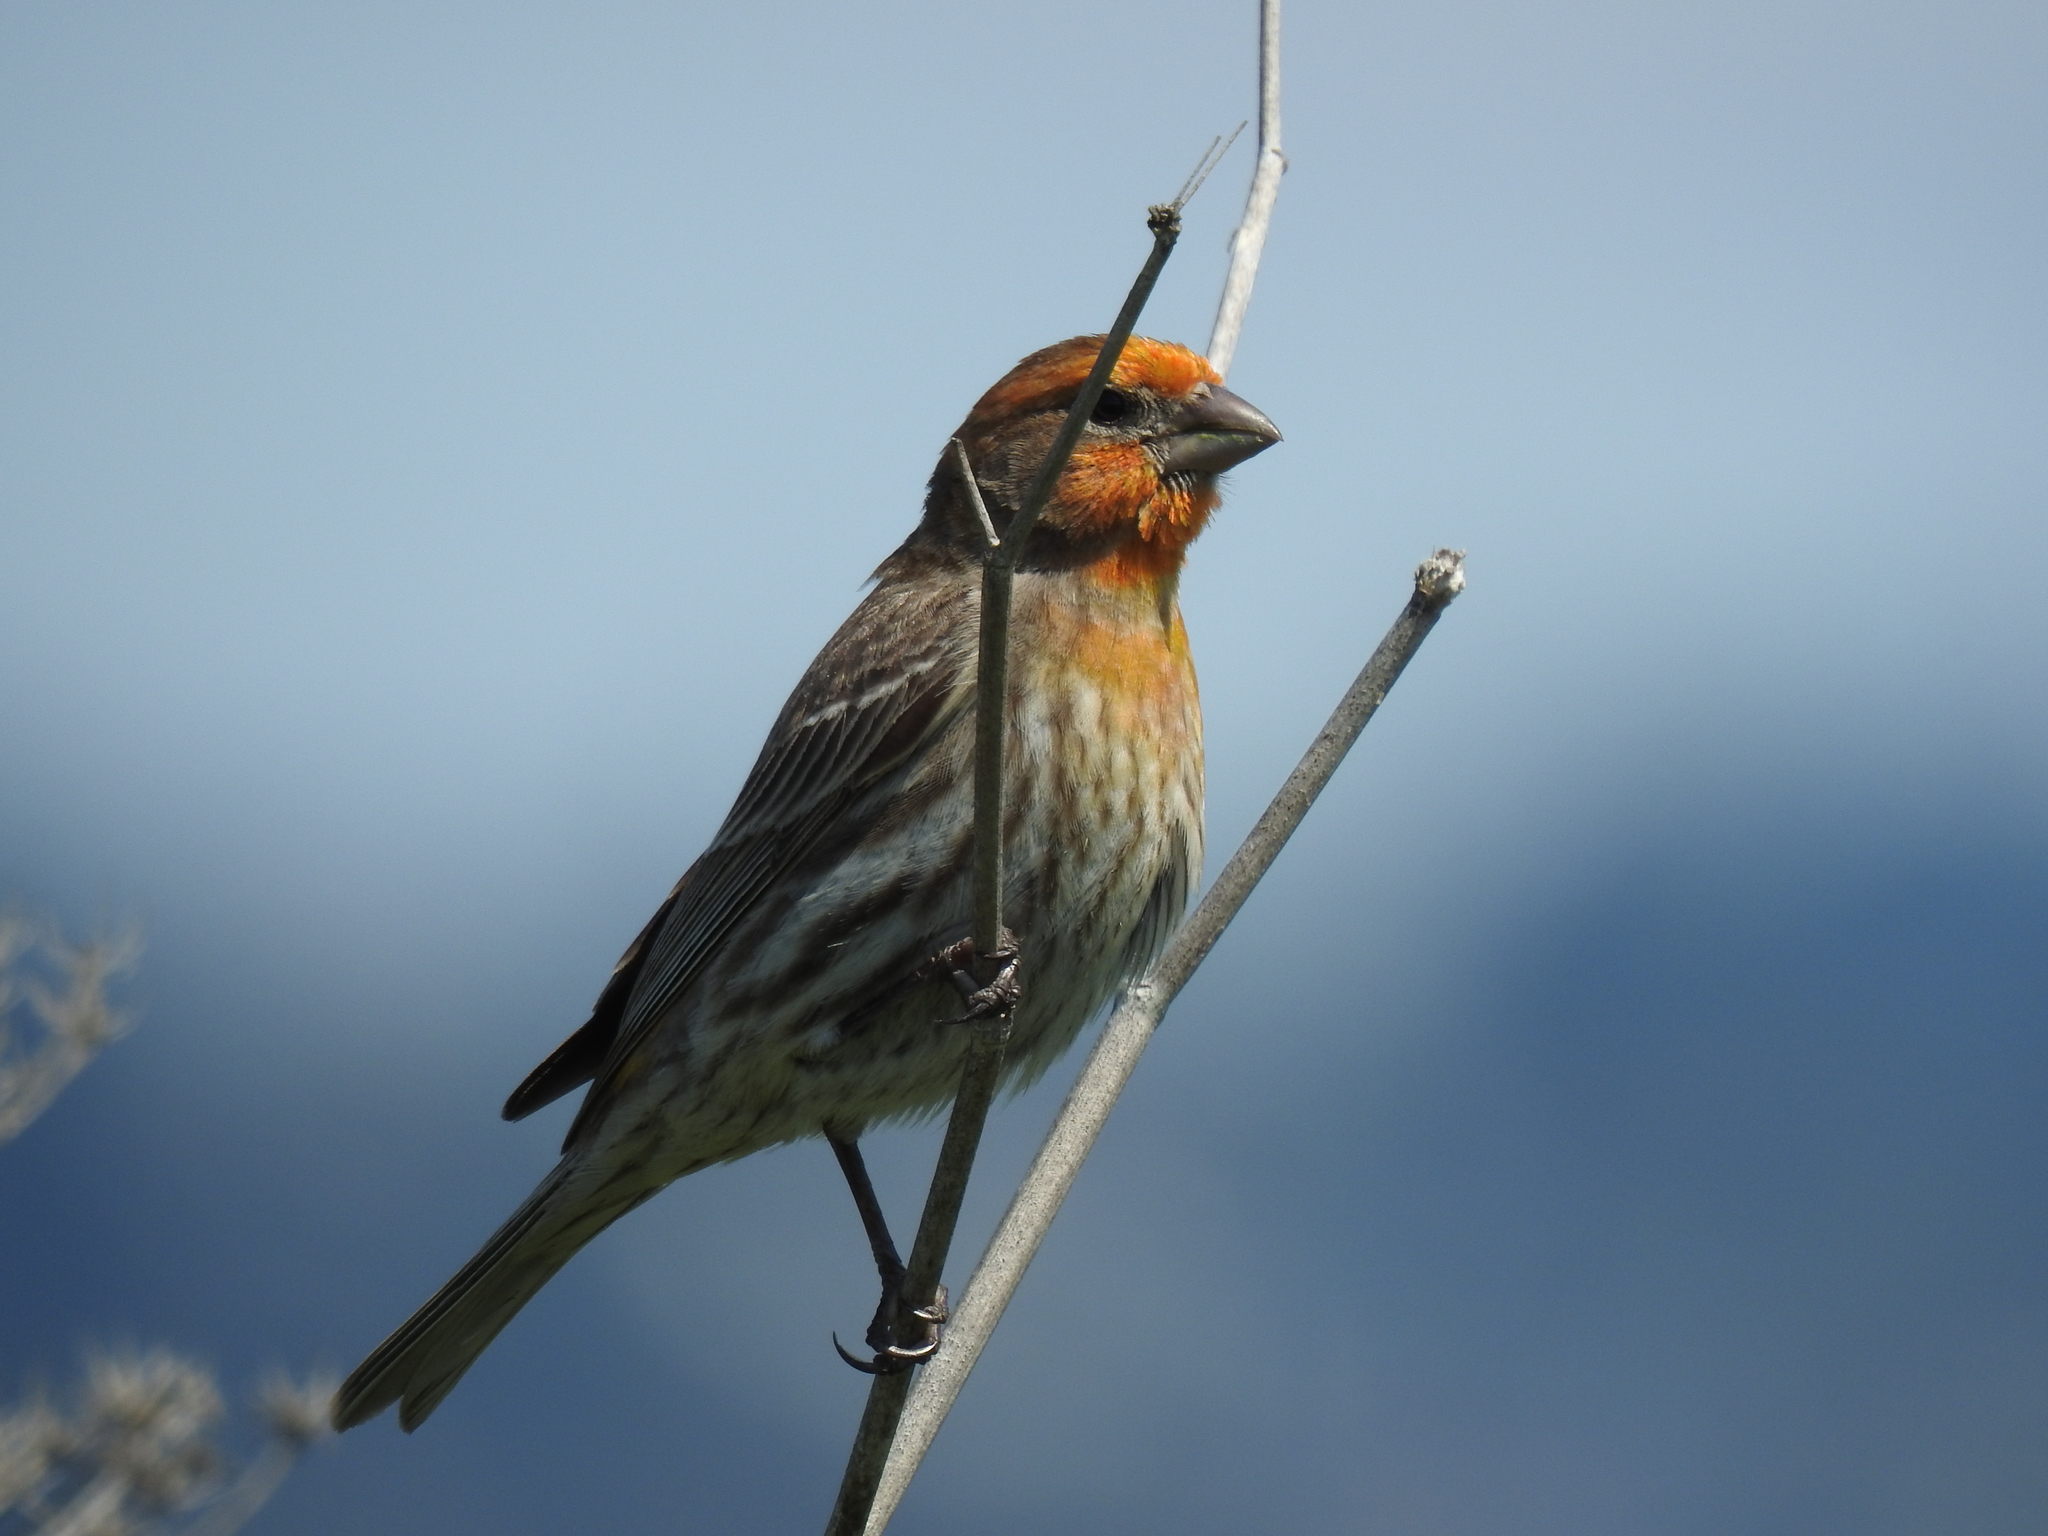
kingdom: Animalia
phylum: Chordata
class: Aves
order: Passeriformes
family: Fringillidae
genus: Haemorhous
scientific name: Haemorhous mexicanus
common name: House finch
